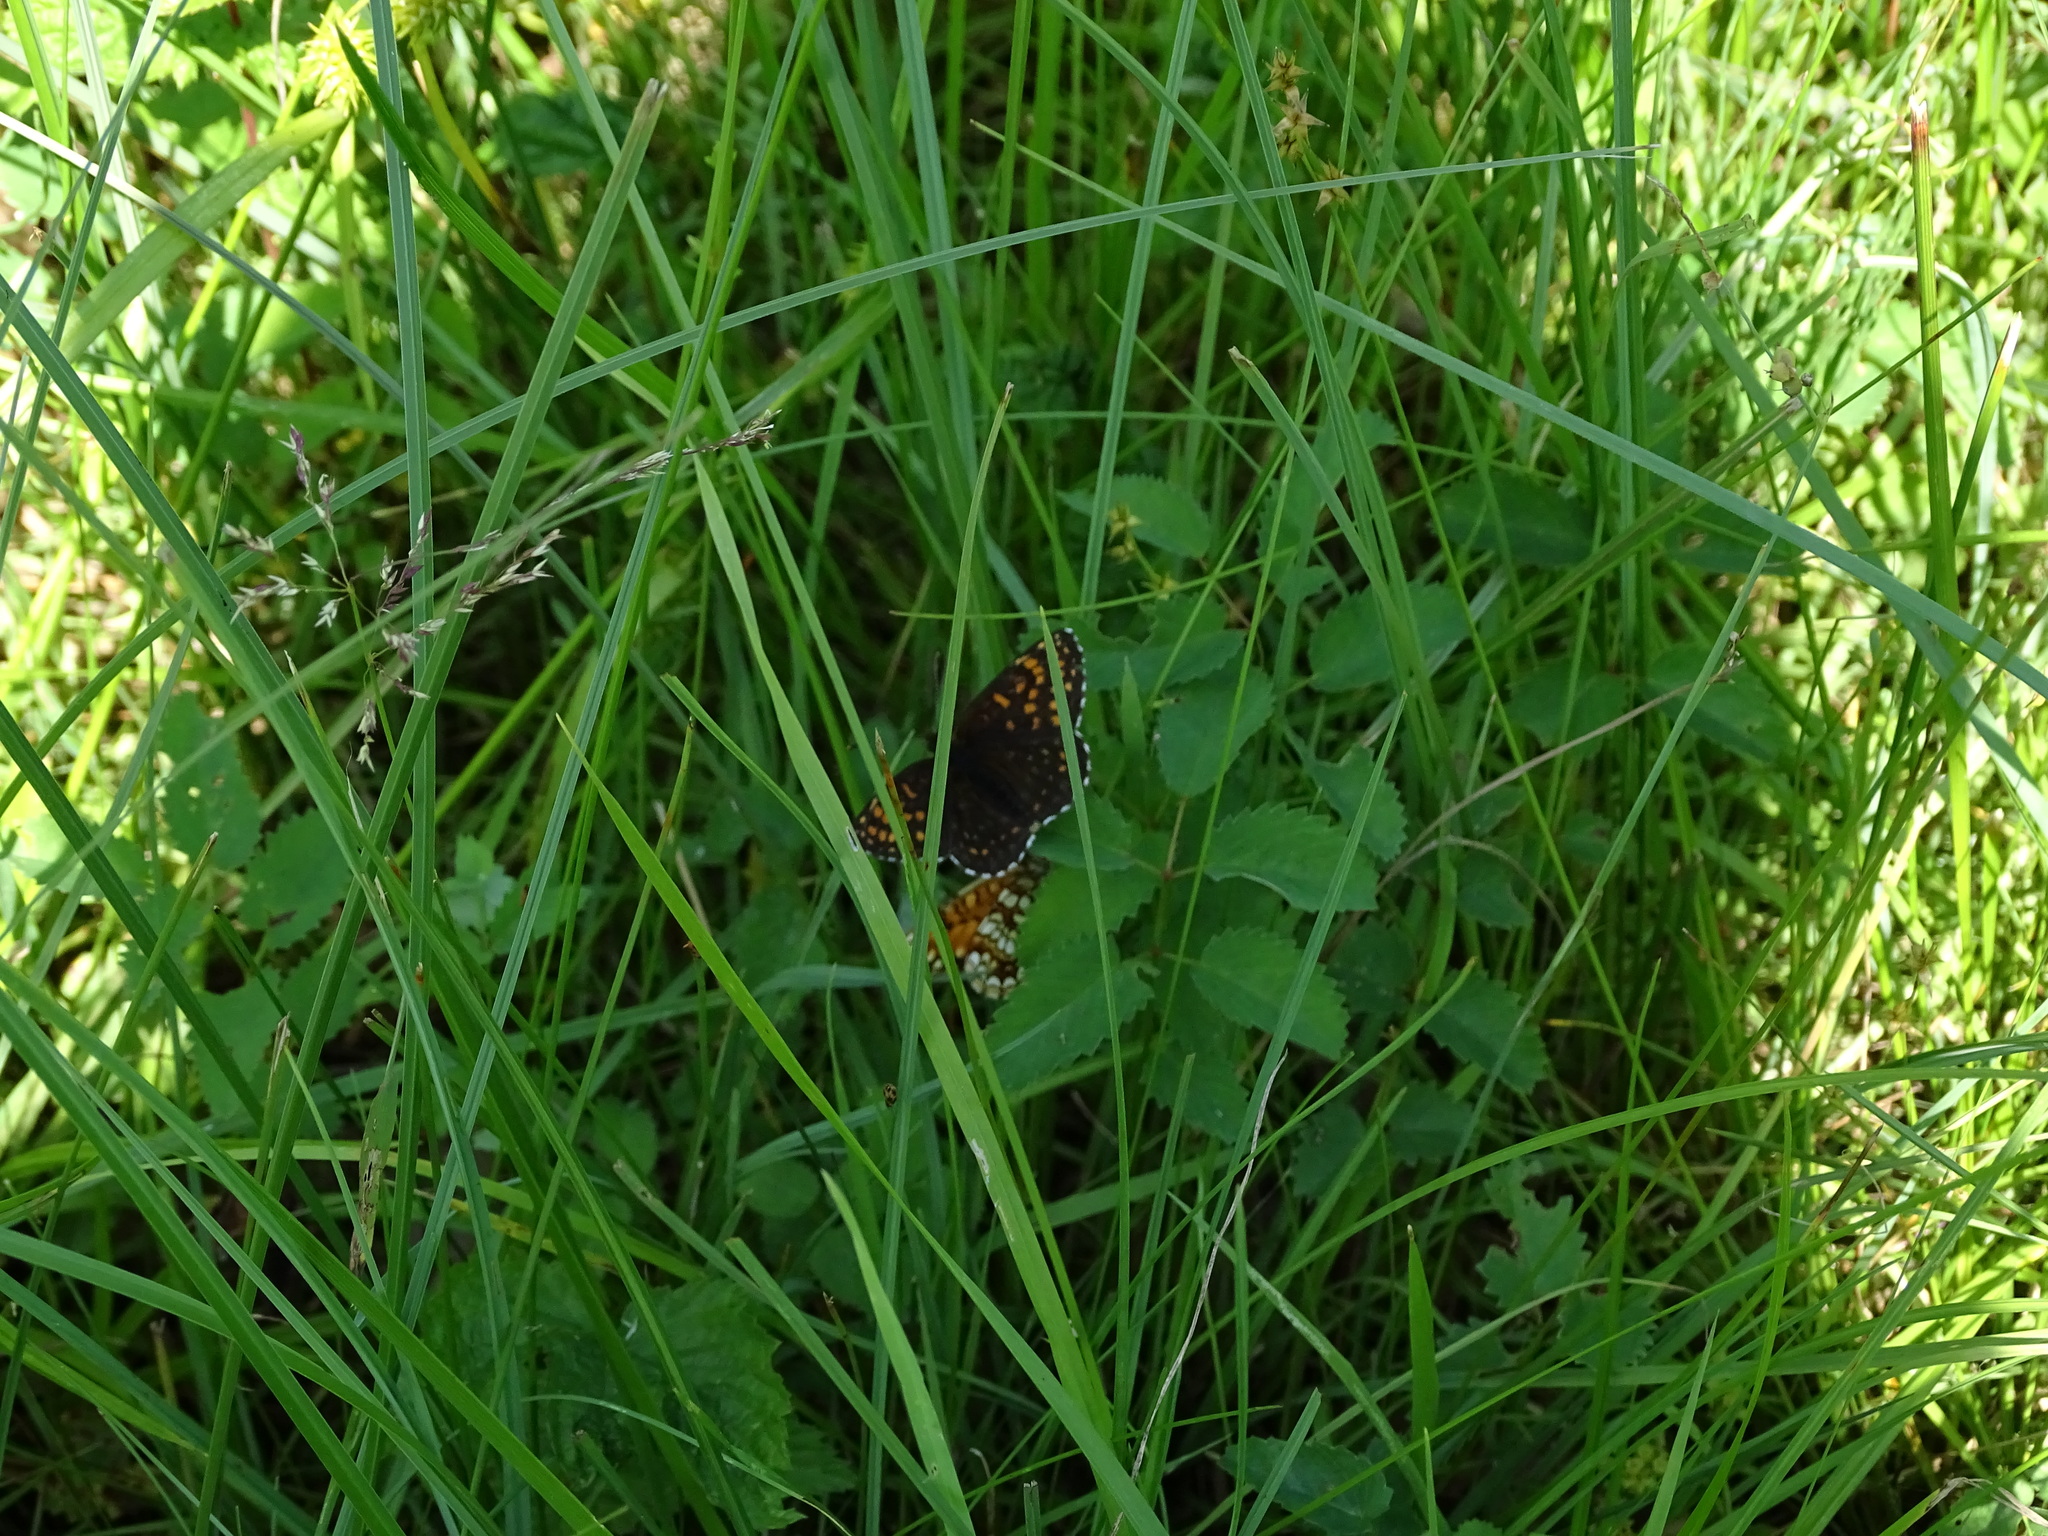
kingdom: Animalia
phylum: Arthropoda
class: Insecta
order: Lepidoptera
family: Nymphalidae
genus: Melitaea
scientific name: Melitaea diamina
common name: False heath fritillary
